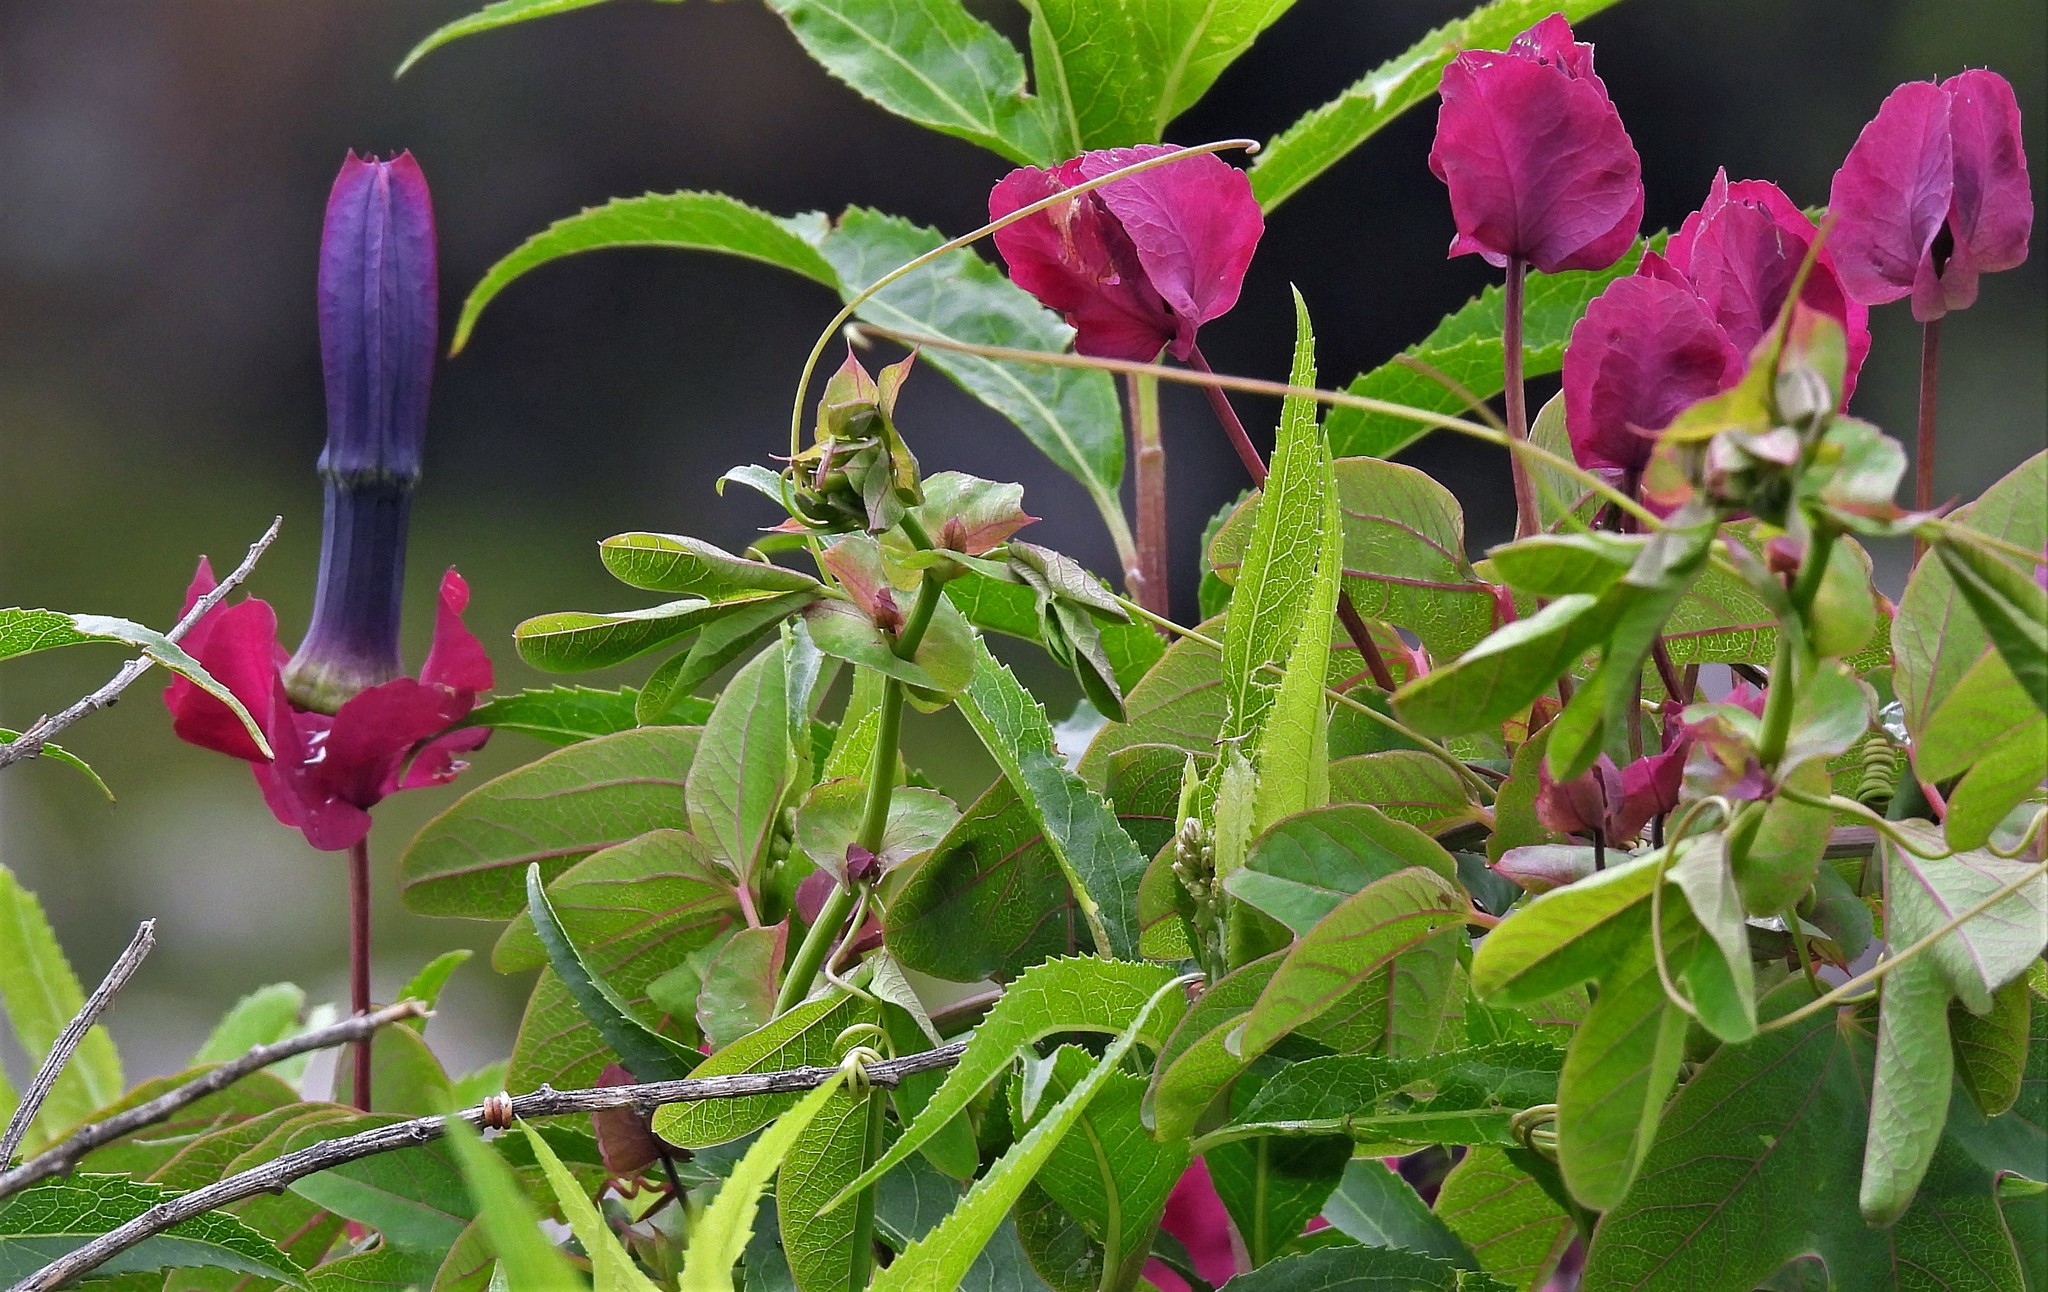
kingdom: Plantae
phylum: Tracheophyta
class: Magnoliopsida
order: Malpighiales
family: Passifloraceae
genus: Passiflora
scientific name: Passiflora umbilicata
